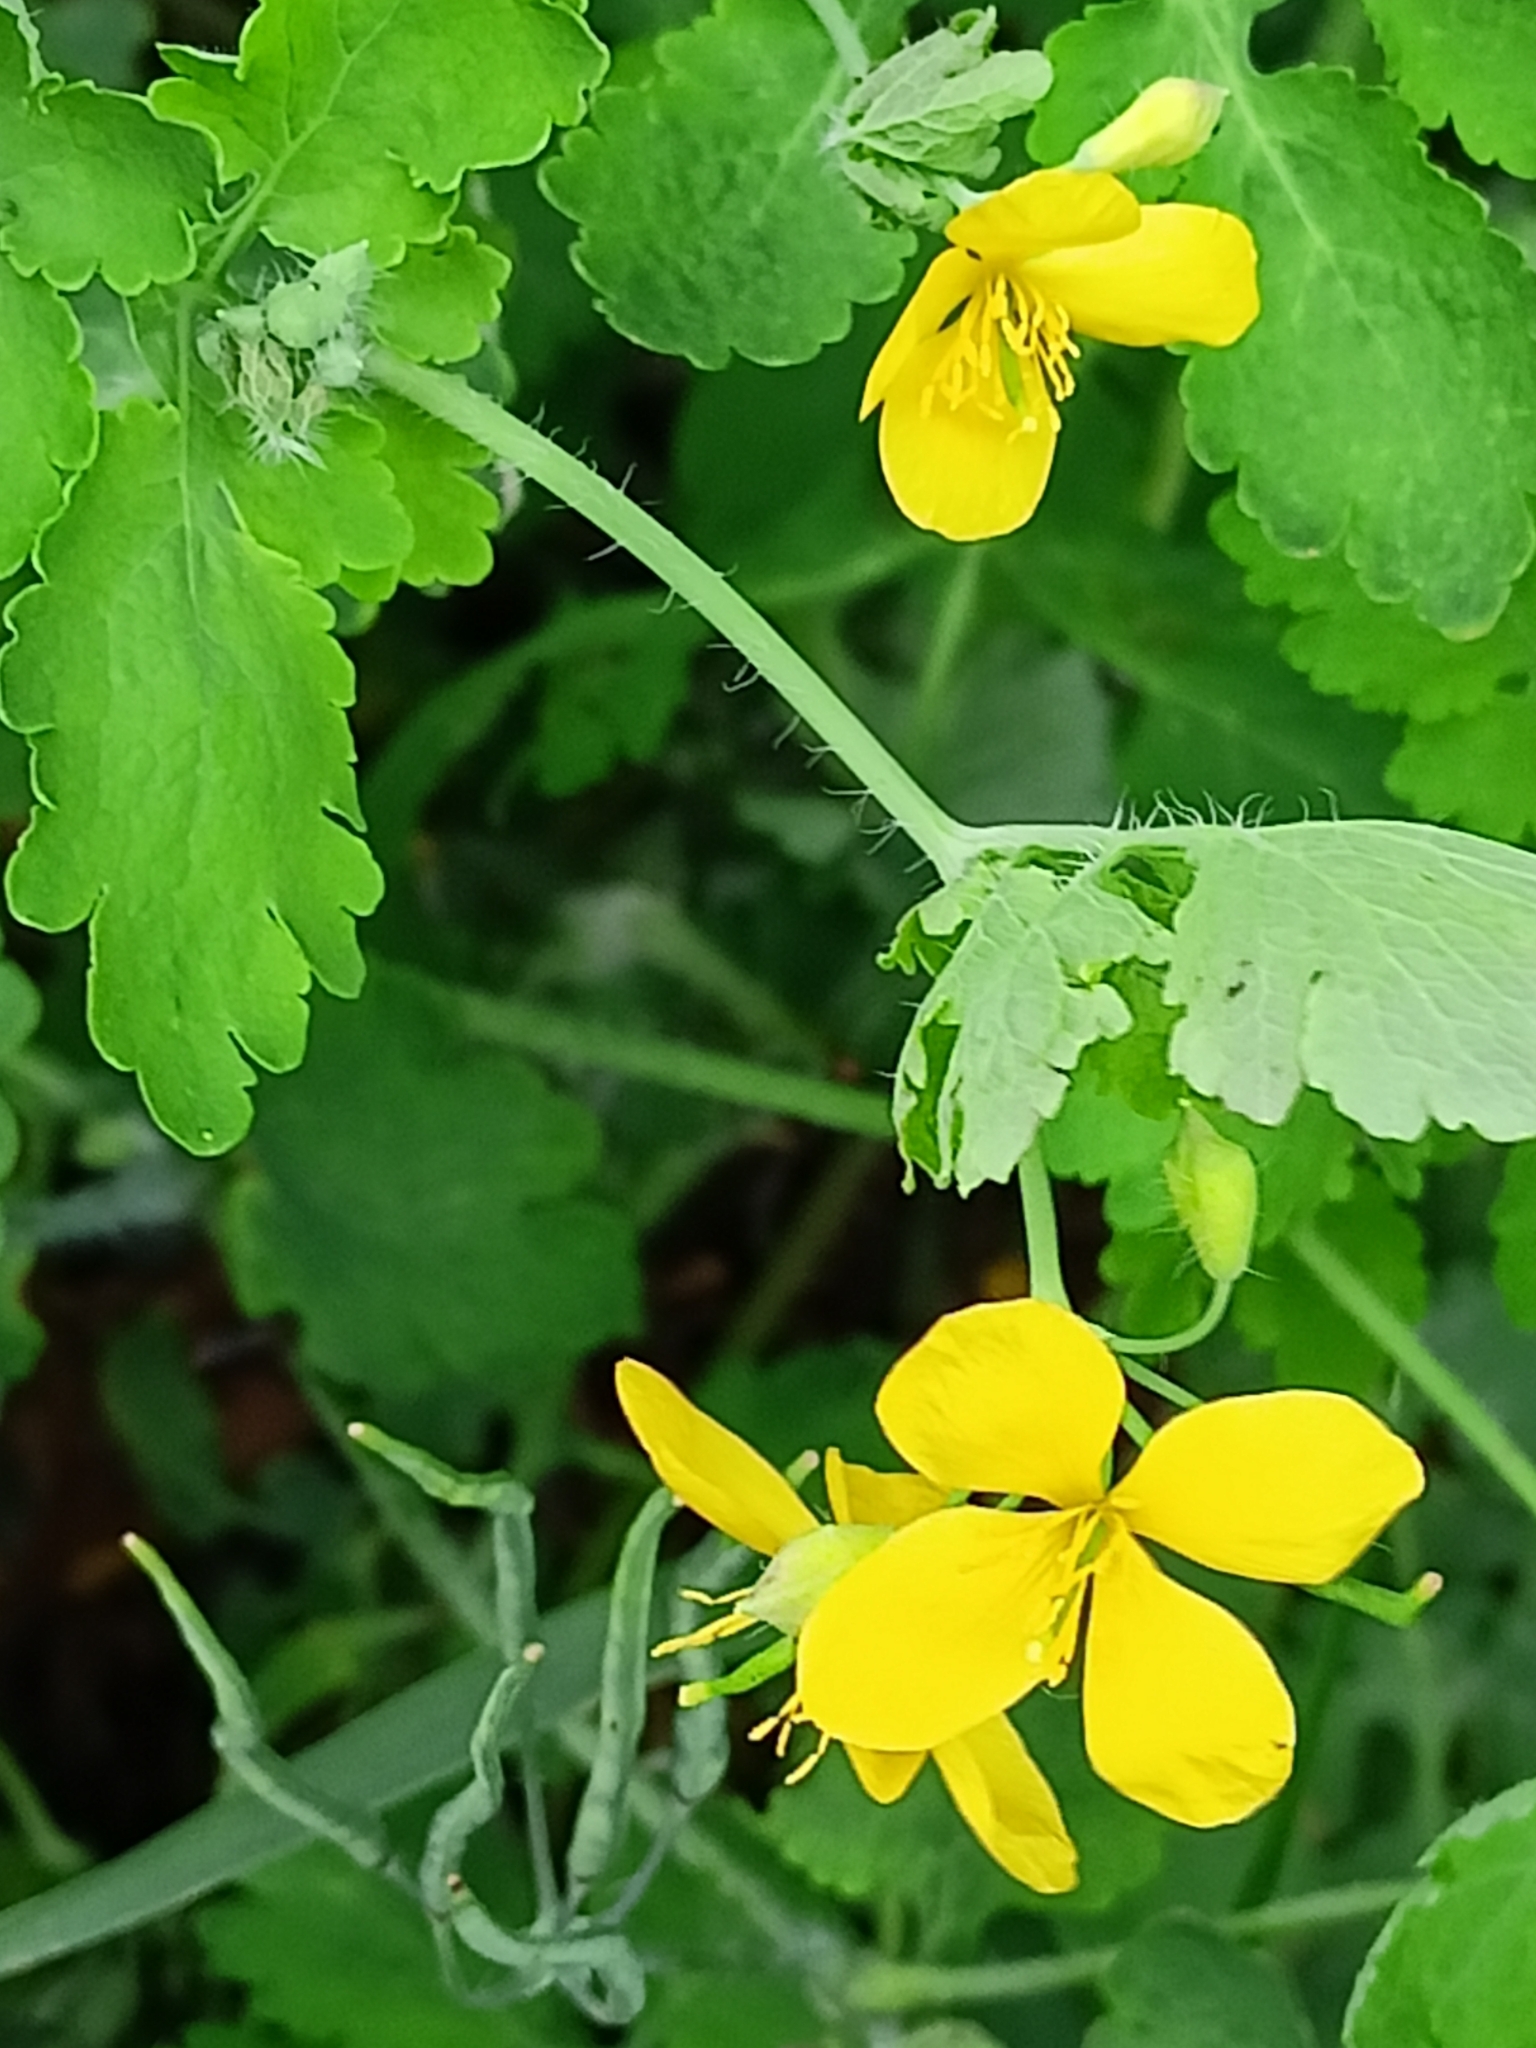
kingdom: Plantae
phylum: Tracheophyta
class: Magnoliopsida
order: Ranunculales
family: Papaveraceae
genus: Chelidonium
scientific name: Chelidonium majus
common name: Greater celandine
